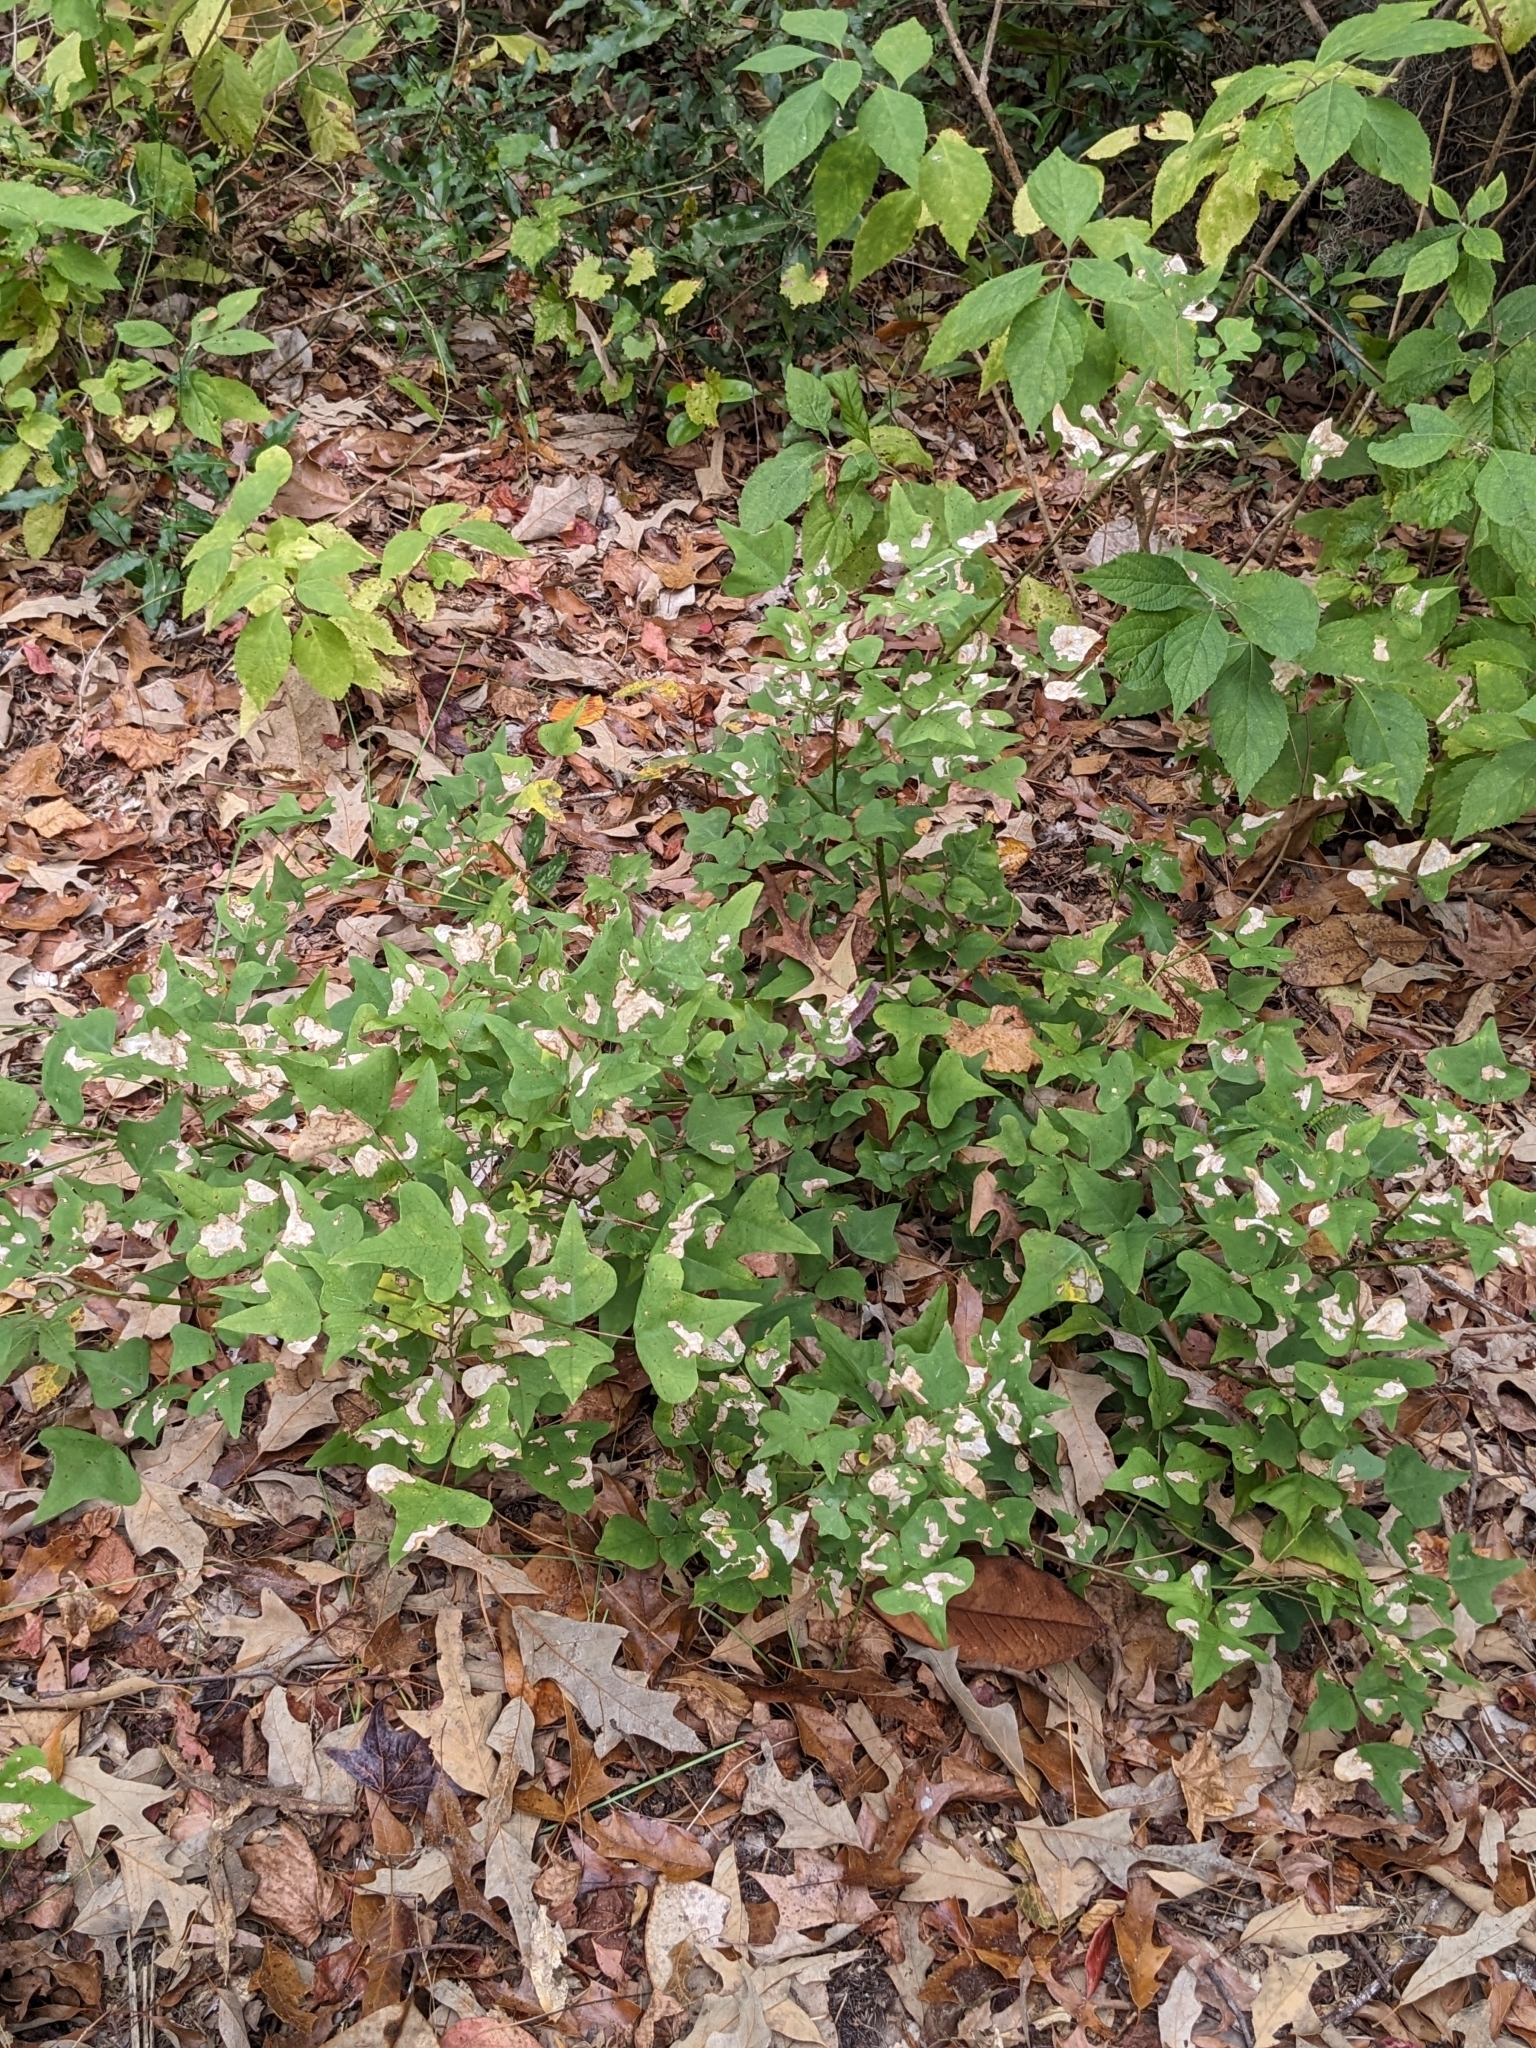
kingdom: Plantae
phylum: Tracheophyta
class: Magnoliopsida
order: Fabales
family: Fabaceae
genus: Erythrina
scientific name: Erythrina herbacea
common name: Coral-bean
